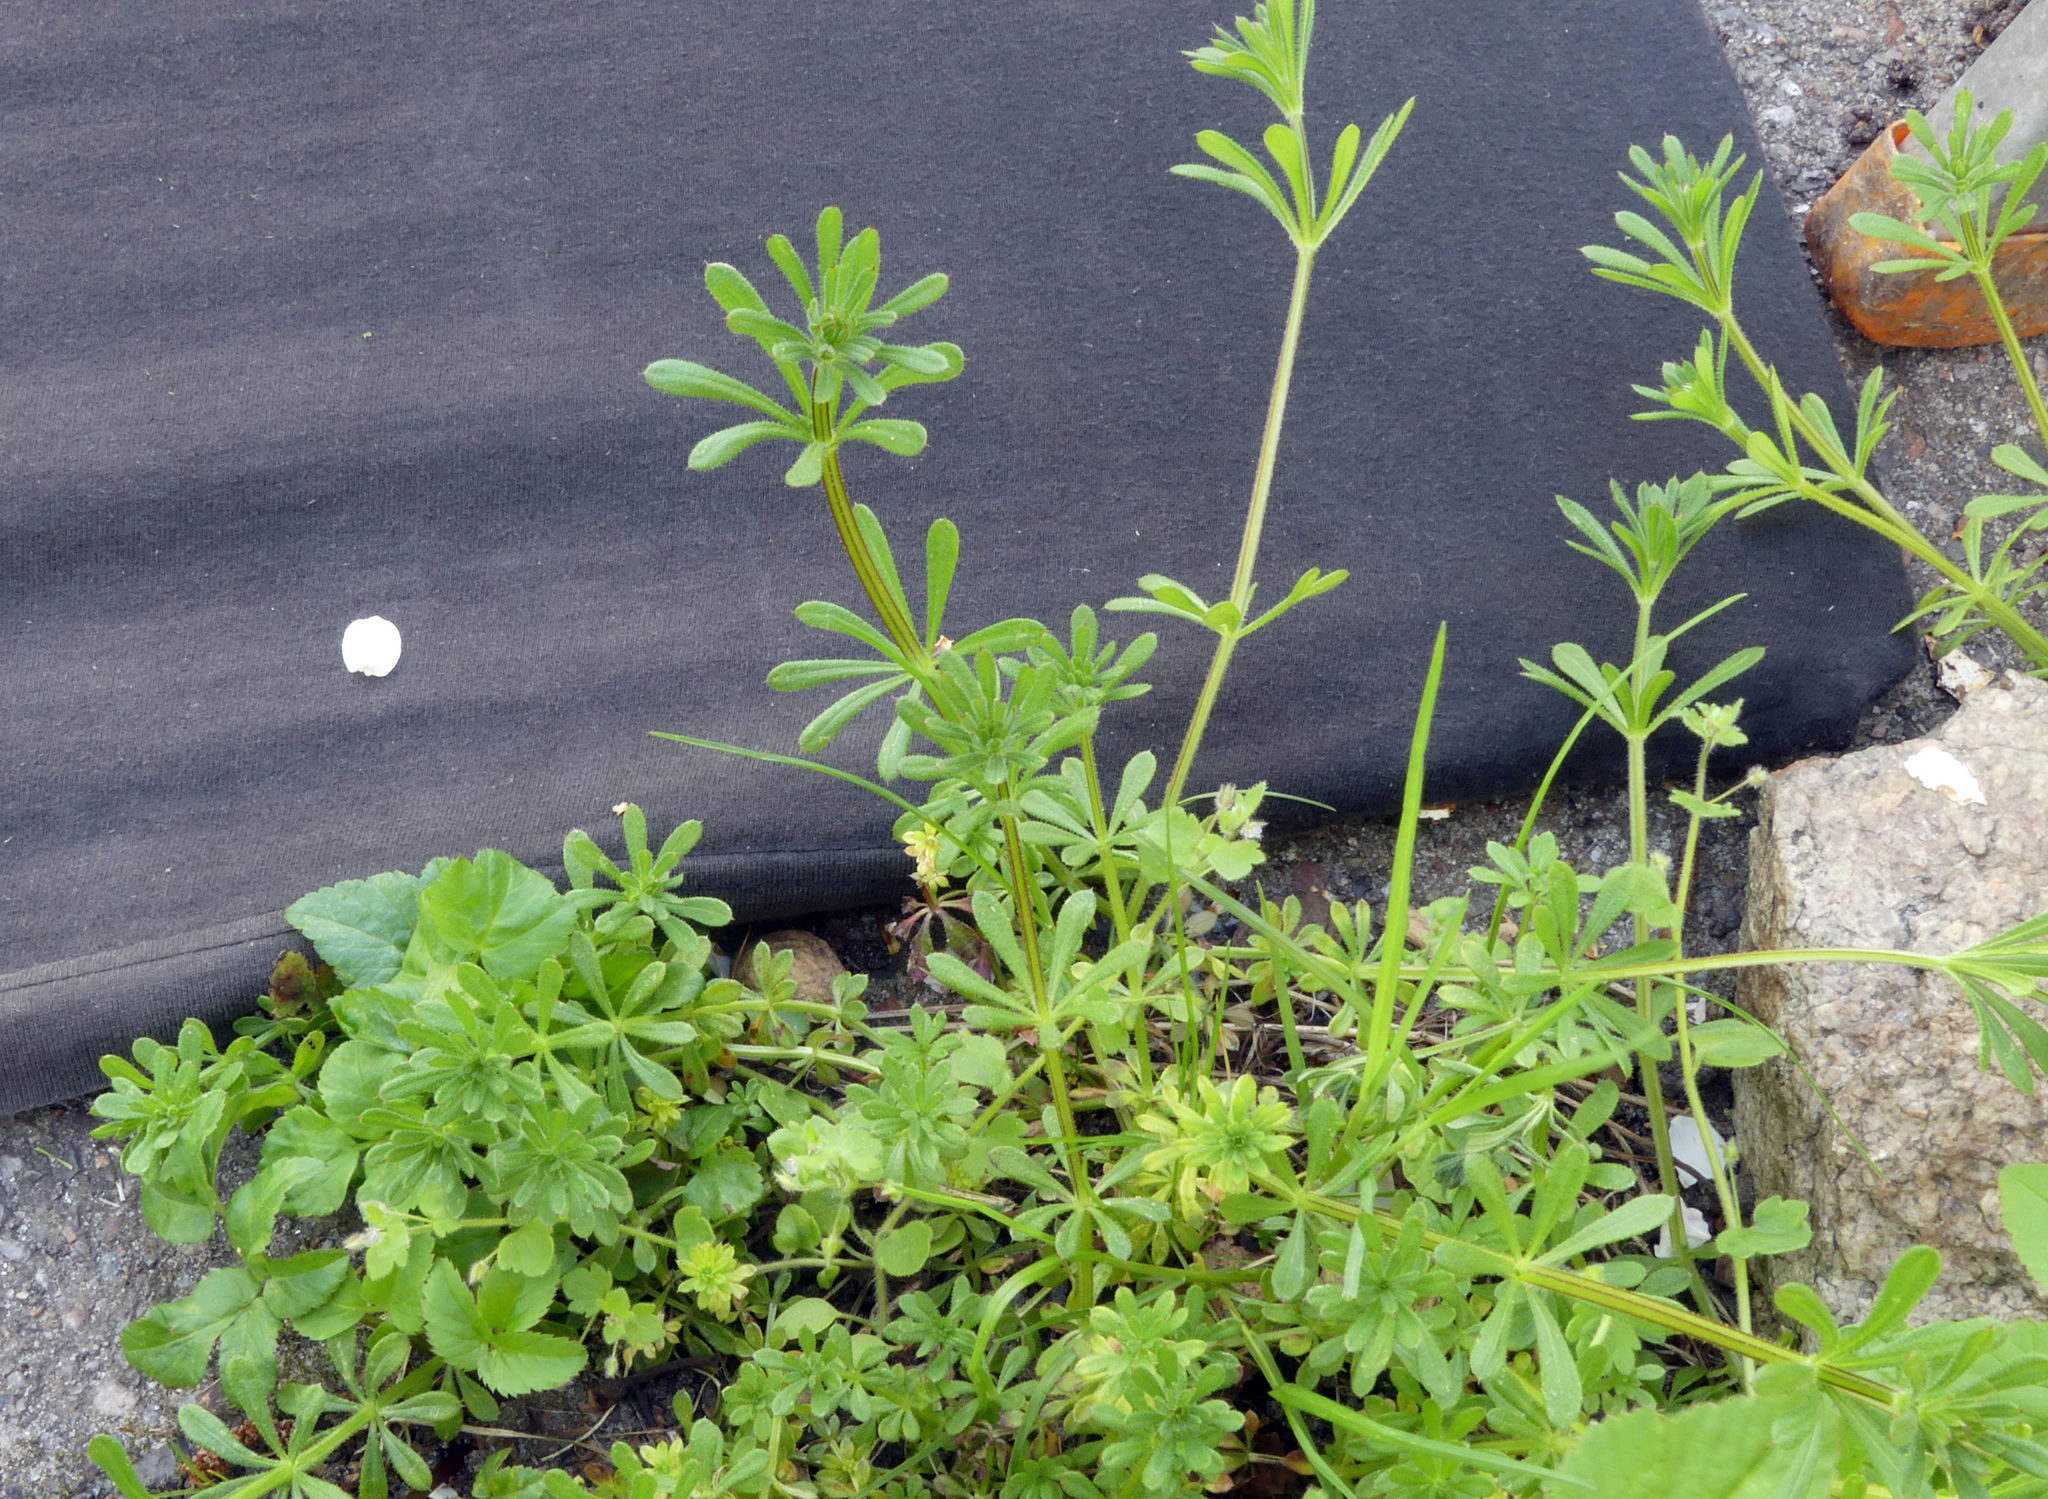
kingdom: Plantae
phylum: Tracheophyta
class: Magnoliopsida
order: Gentianales
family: Rubiaceae
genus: Galium
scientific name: Galium aparine
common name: Cleavers
